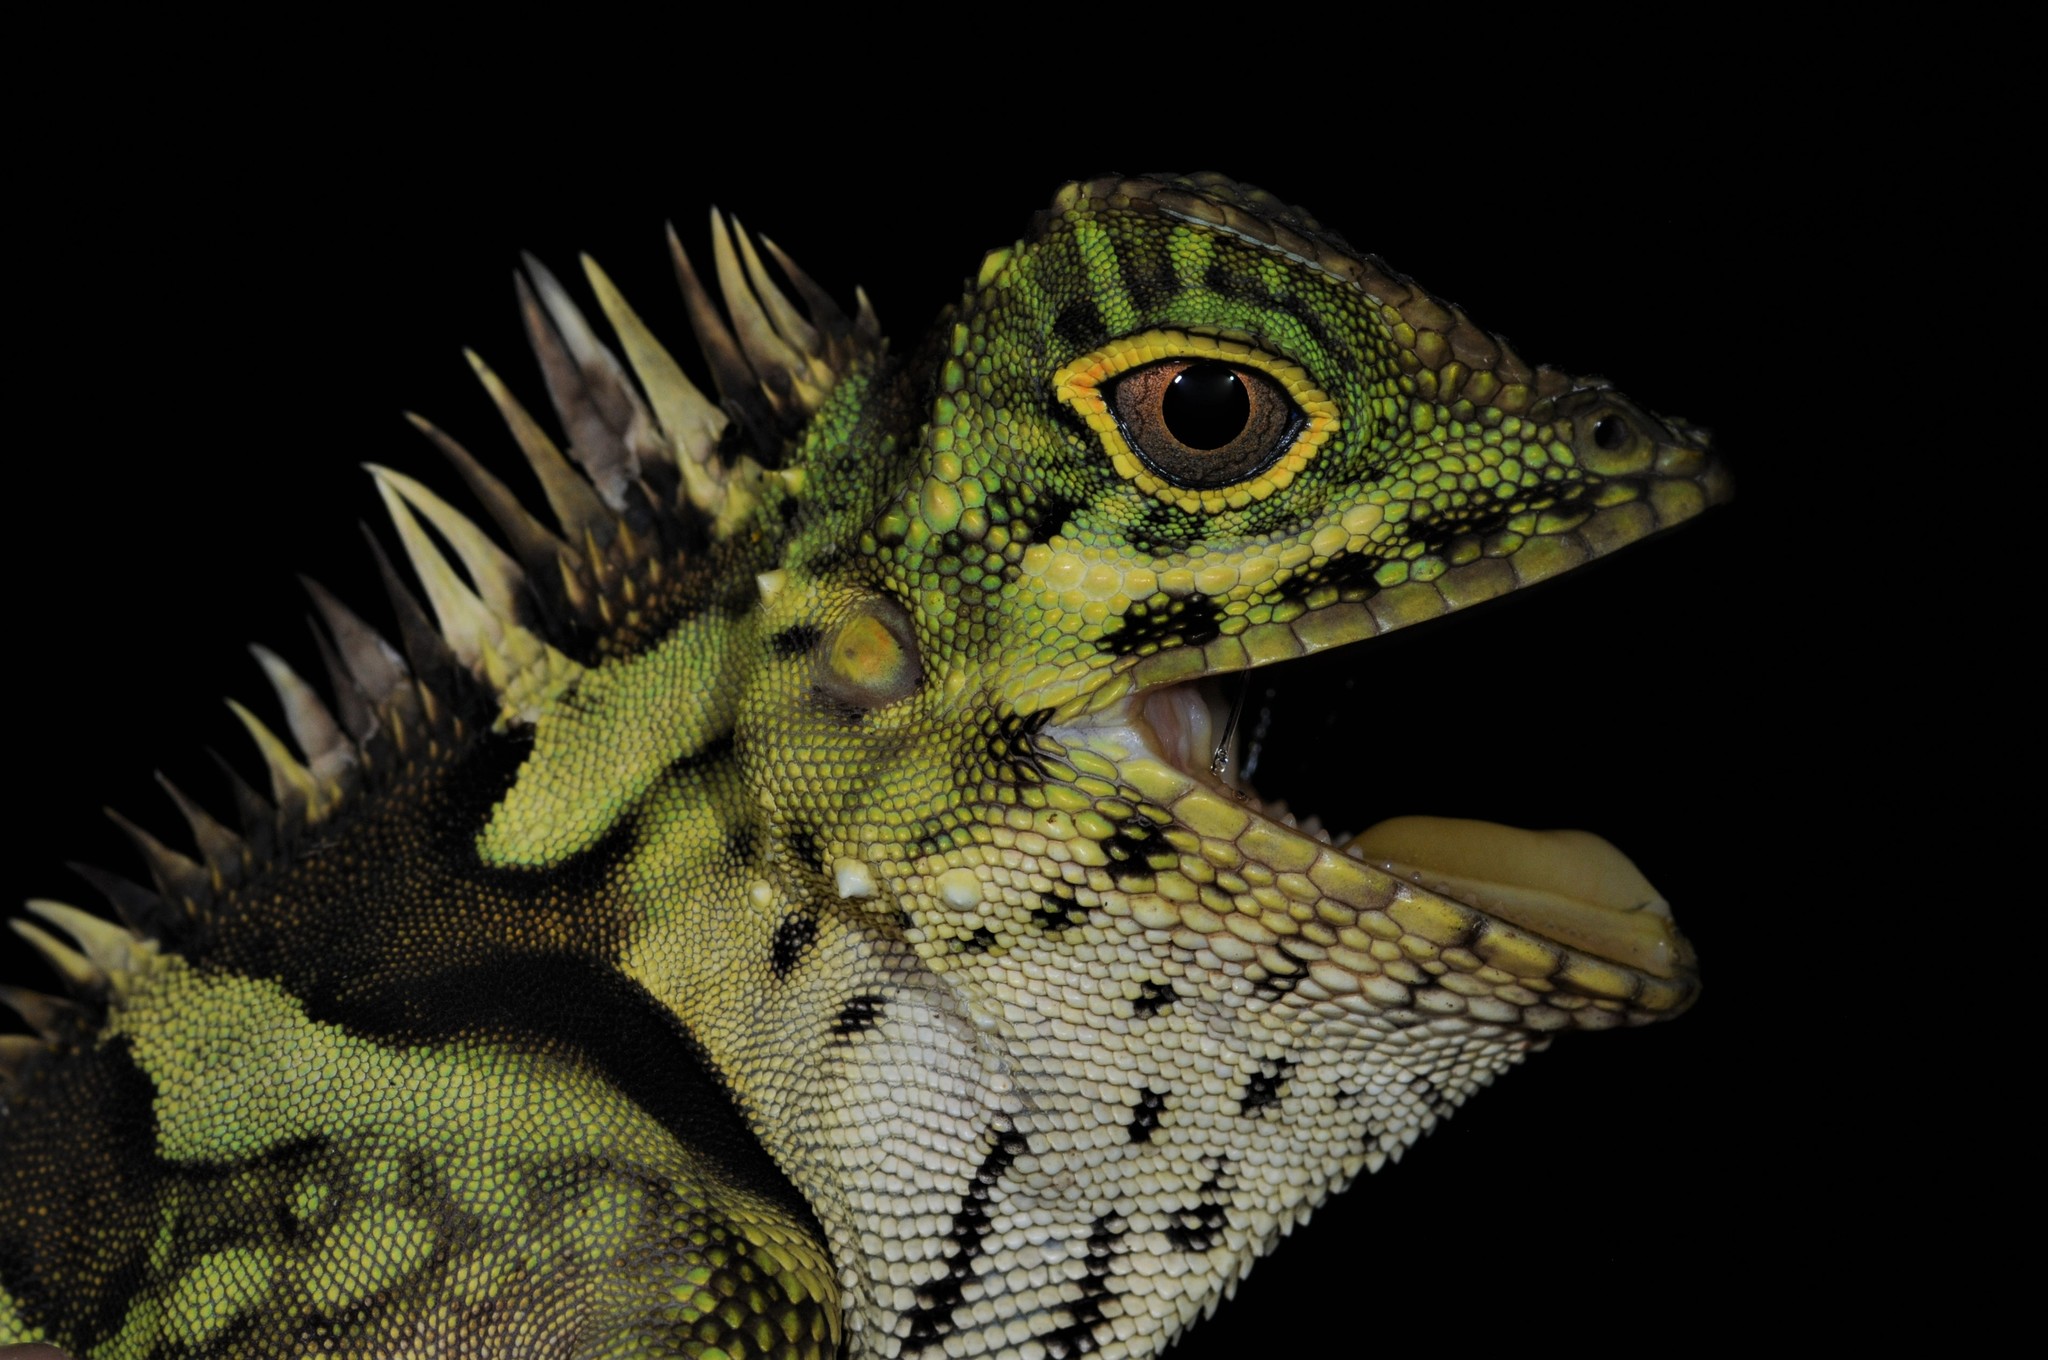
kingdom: Animalia
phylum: Chordata
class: Squamata
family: Agamidae
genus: Gonocephalus
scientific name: Gonocephalus liogaster
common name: Blue-eyed anglehead lizard
